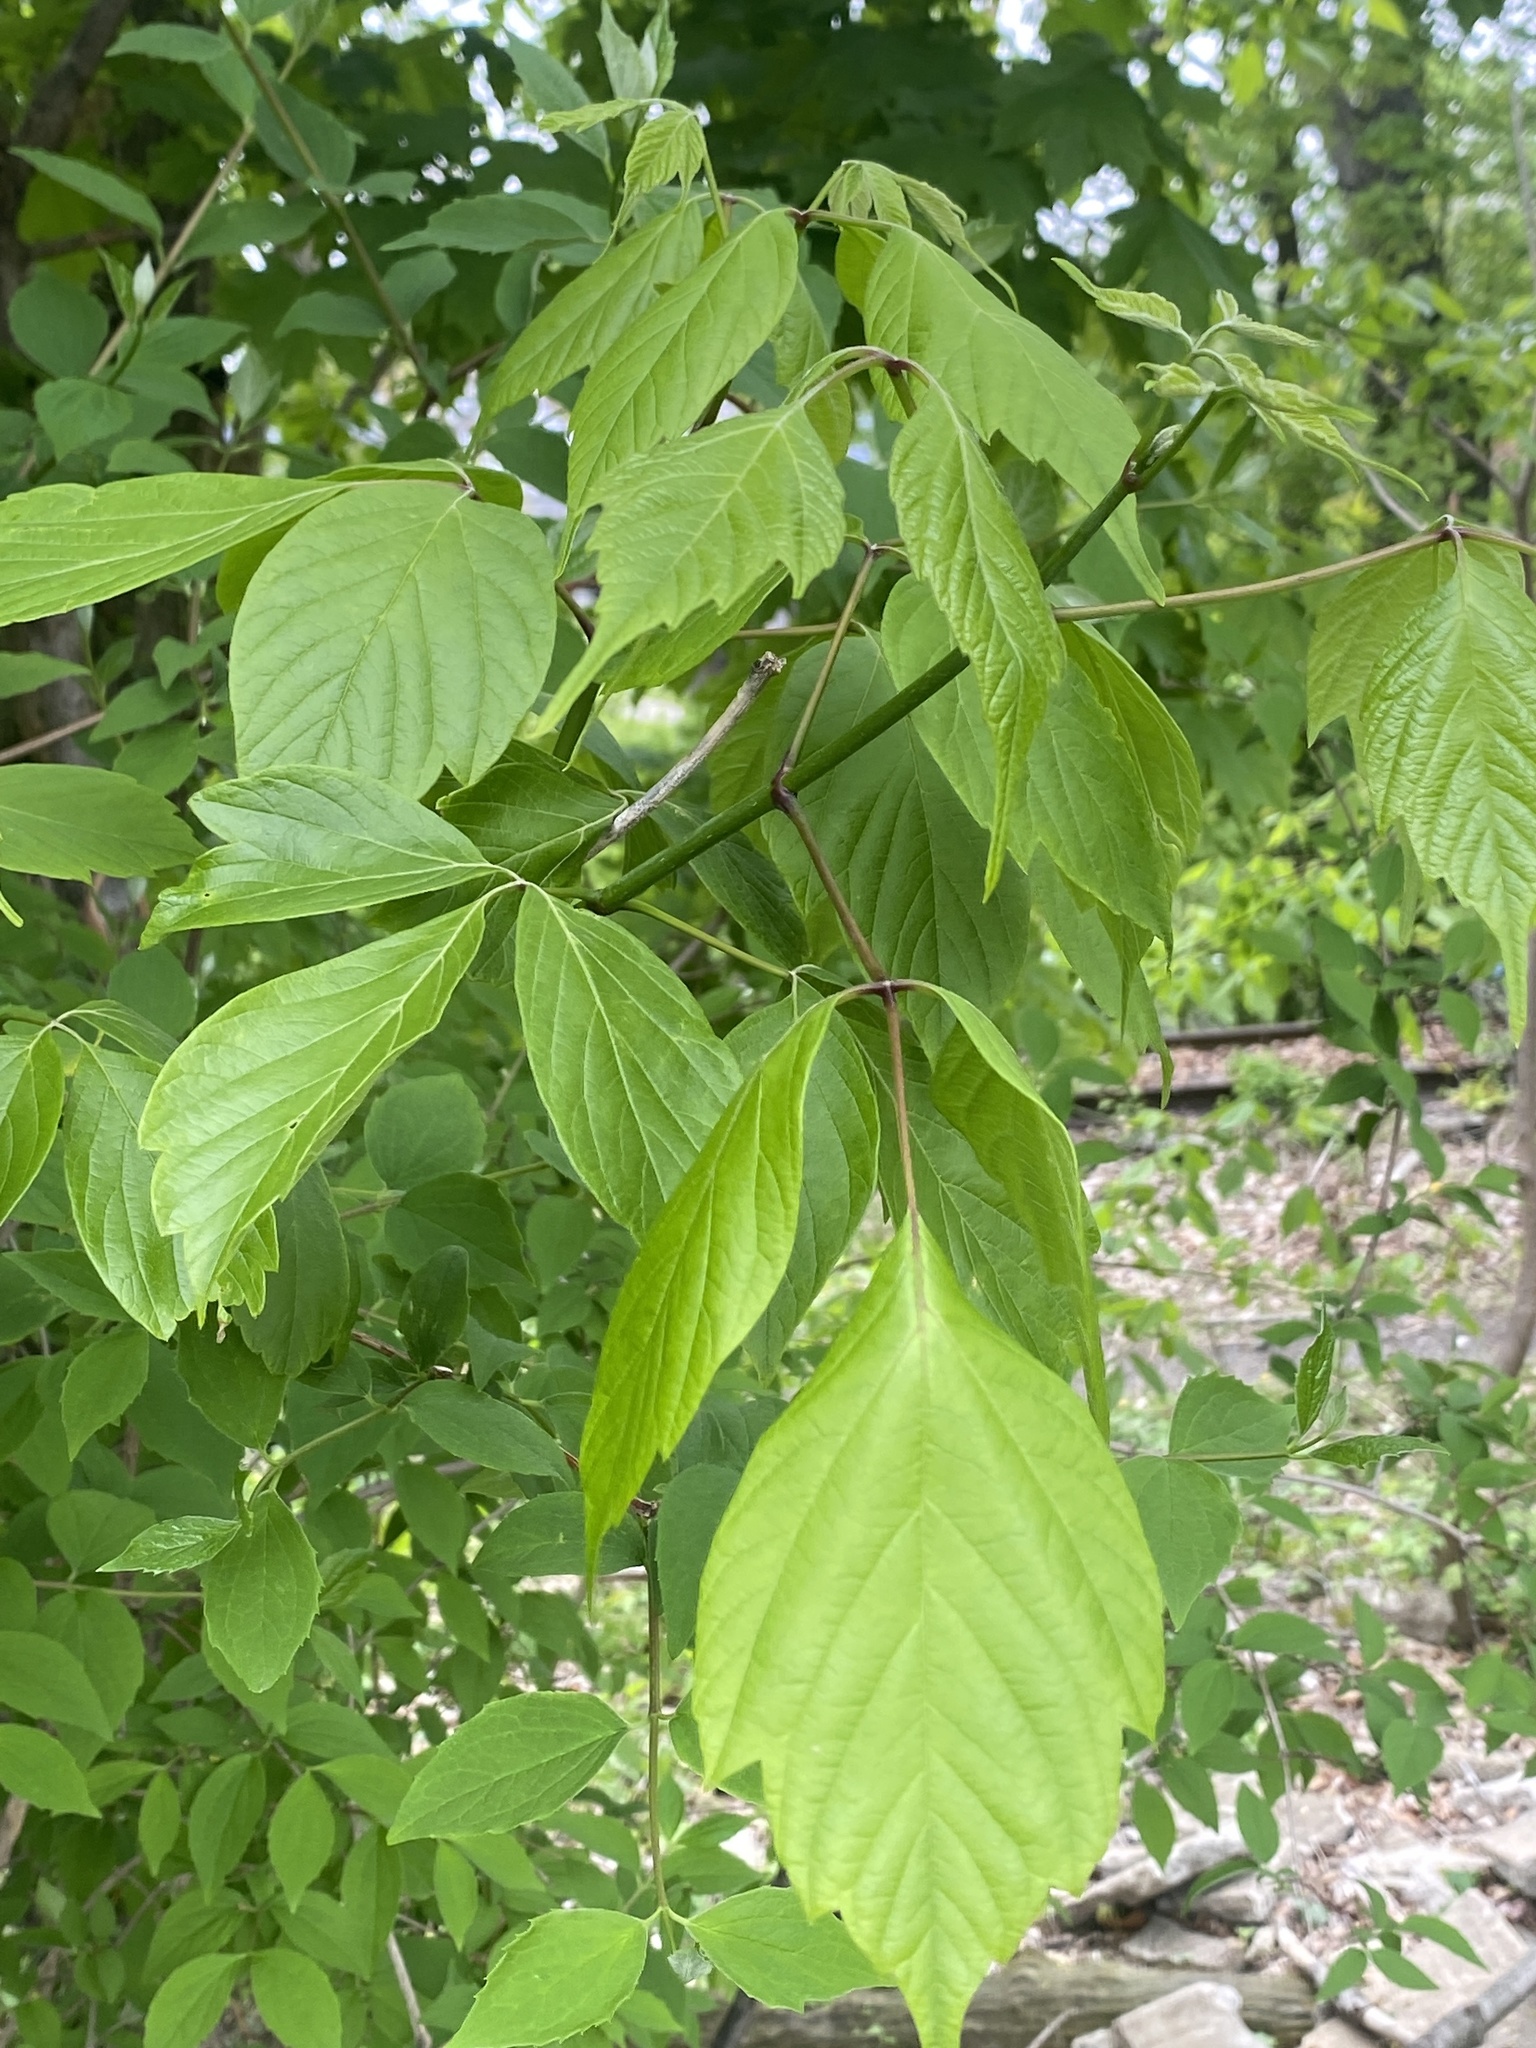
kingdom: Plantae
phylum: Tracheophyta
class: Magnoliopsida
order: Sapindales
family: Sapindaceae
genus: Acer
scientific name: Acer negundo
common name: Ashleaf maple
